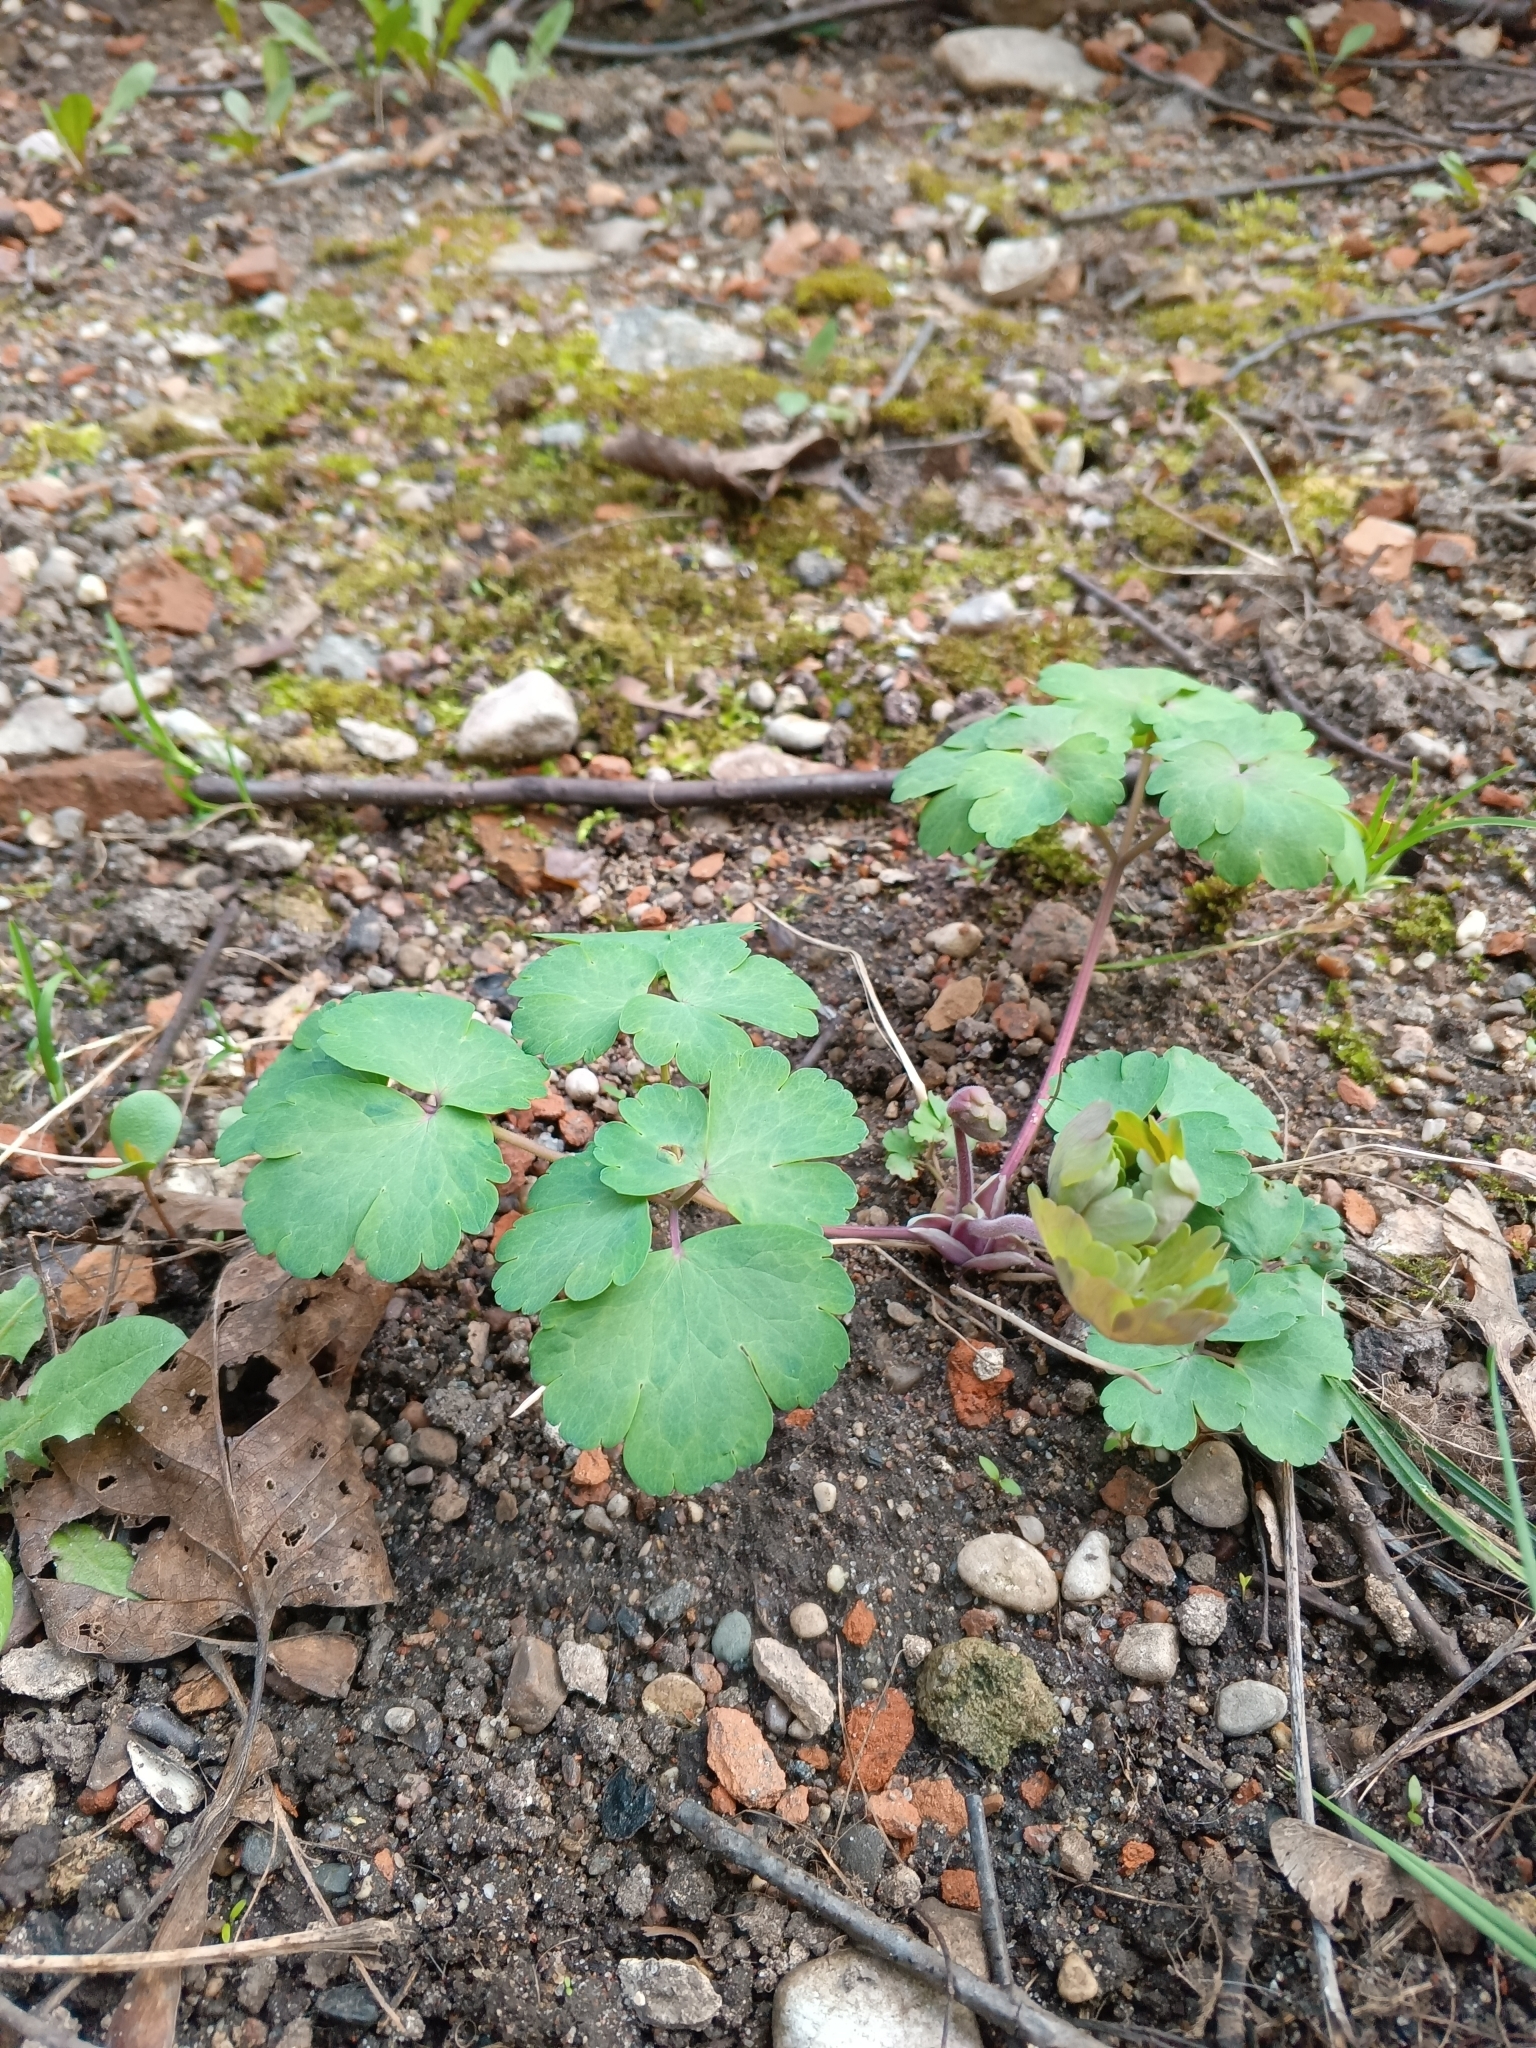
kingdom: Plantae
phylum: Tracheophyta
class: Magnoliopsida
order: Ranunculales
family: Ranunculaceae
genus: Aquilegia
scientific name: Aquilegia vulgaris
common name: Columbine
